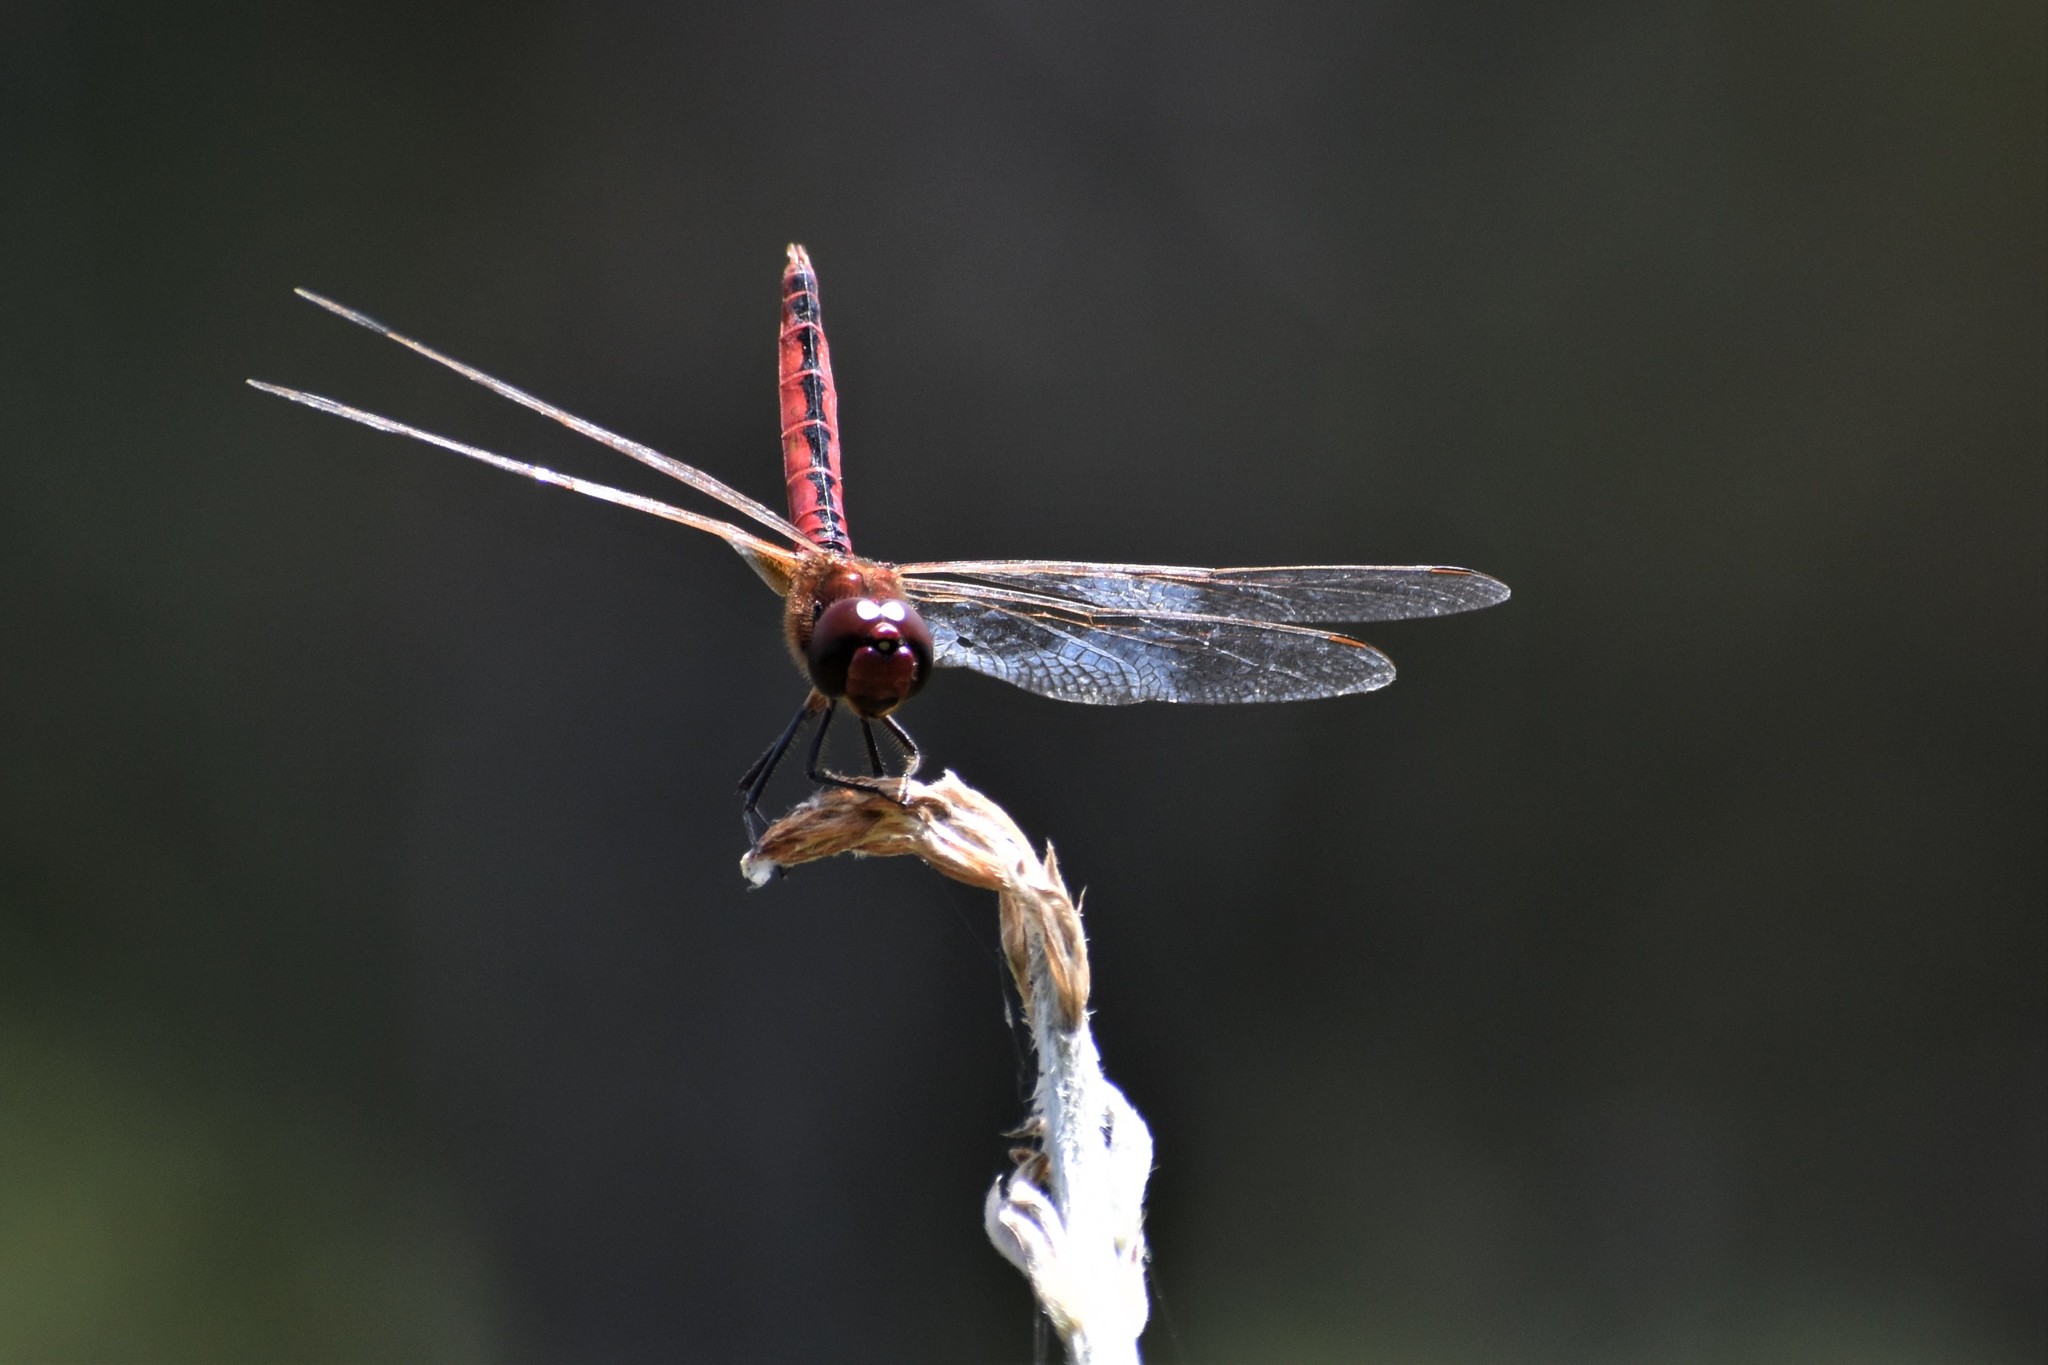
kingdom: Animalia
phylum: Arthropoda
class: Insecta
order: Odonata
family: Libellulidae
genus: Macrodiplax
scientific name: Macrodiplax cora
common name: Coastal glider
